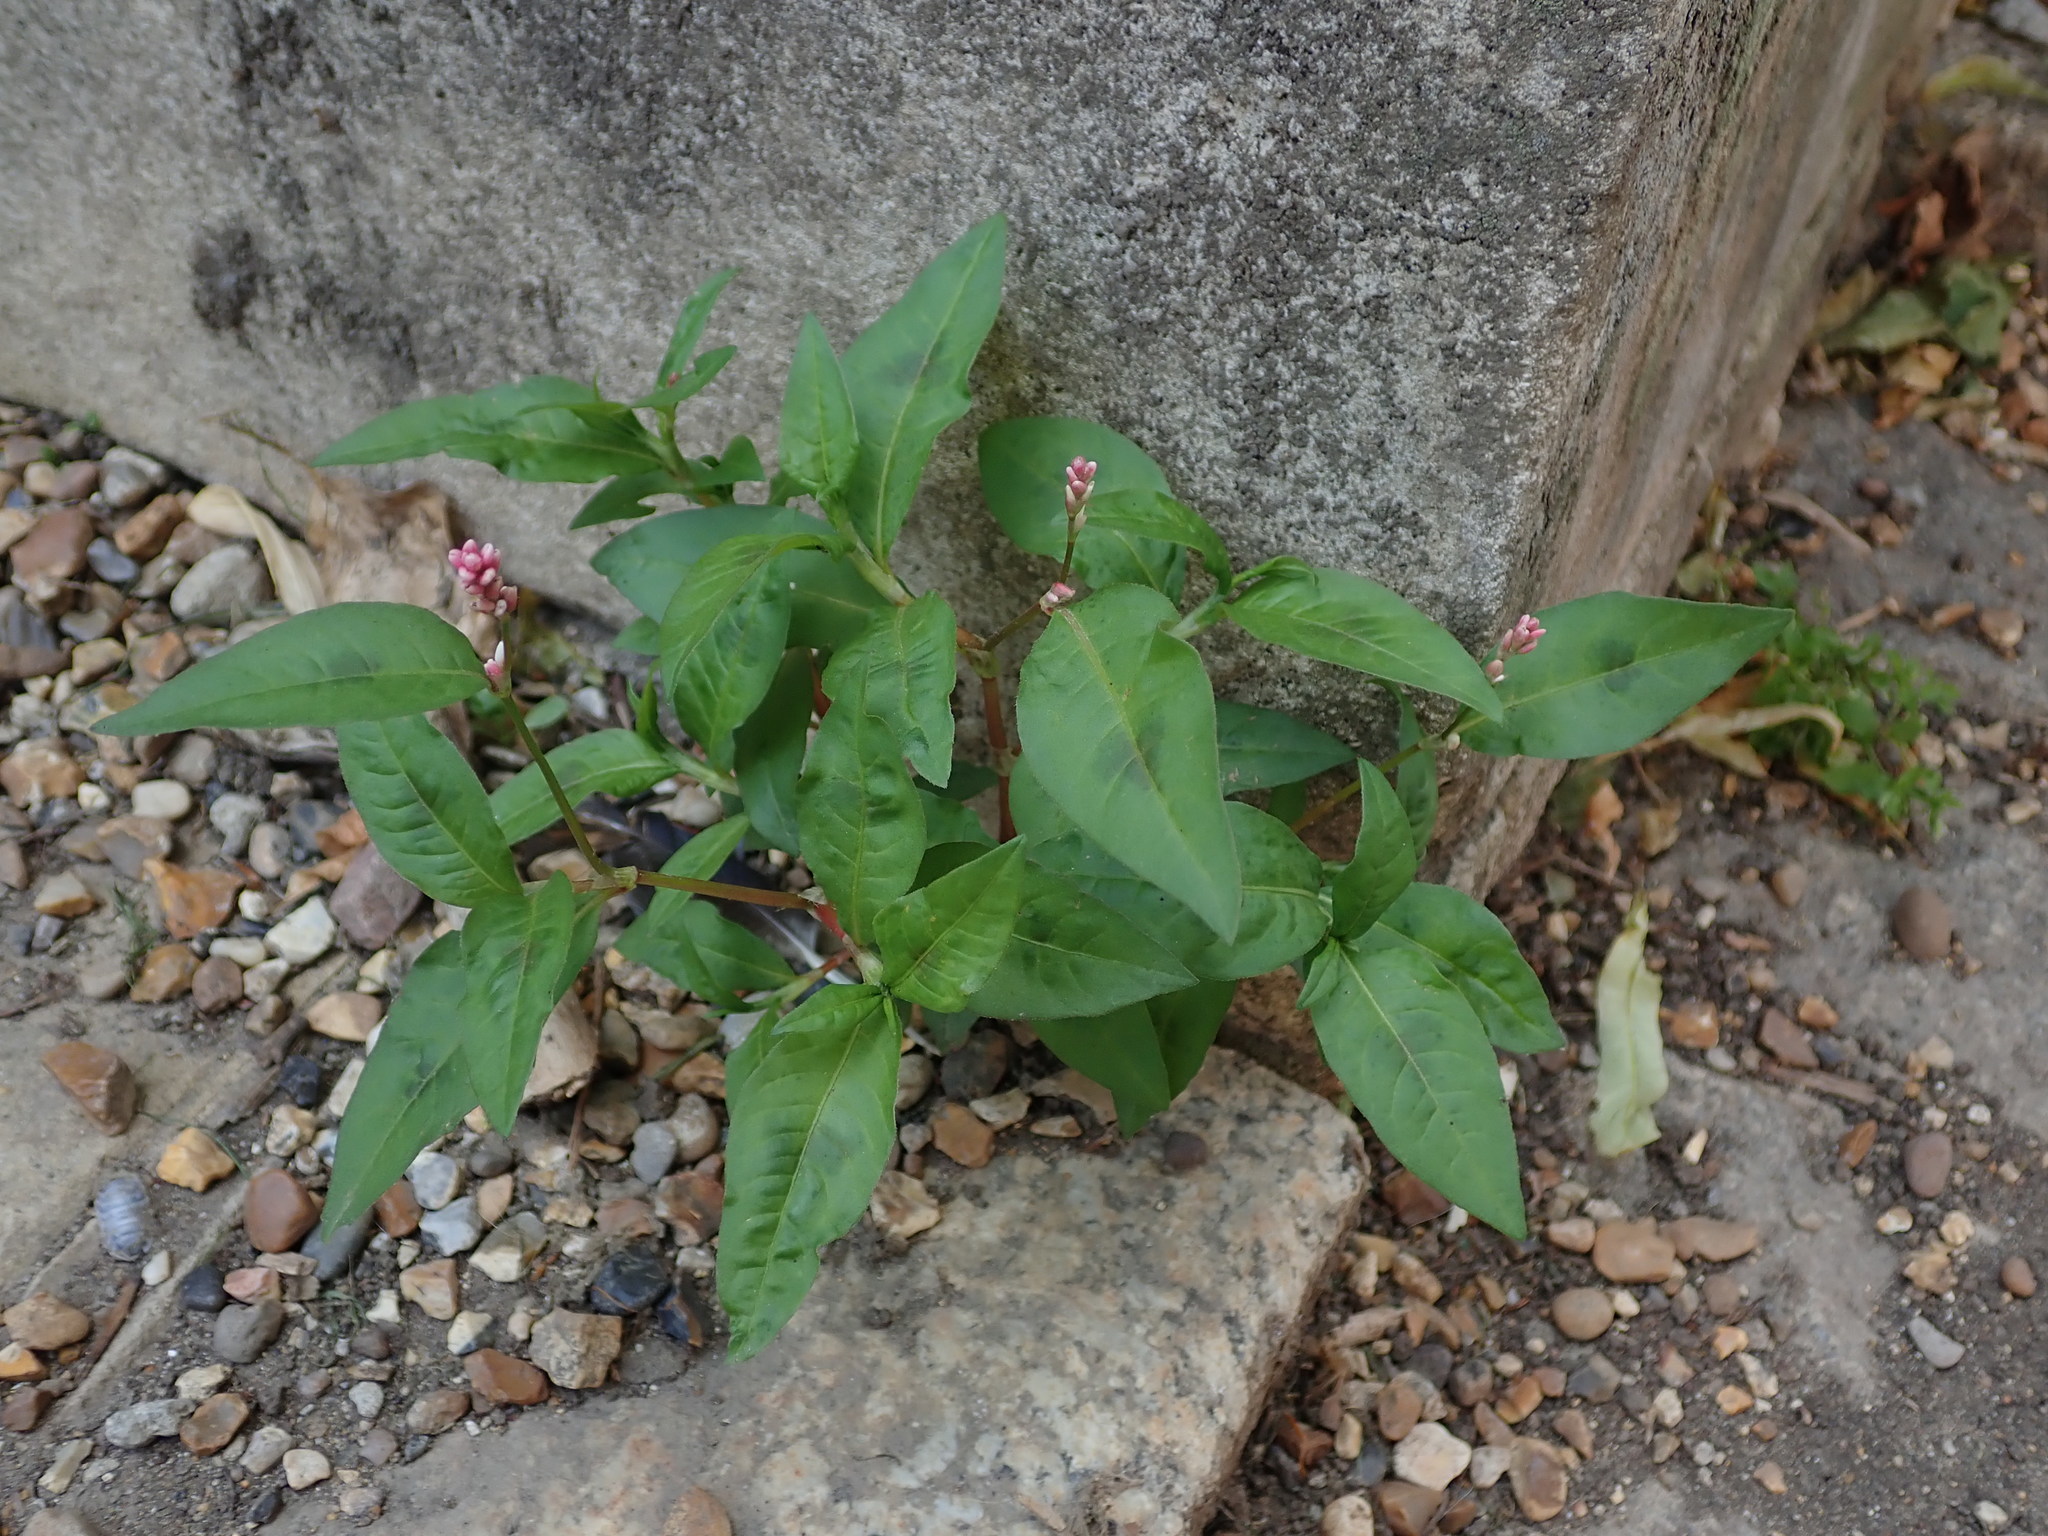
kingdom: Plantae
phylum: Tracheophyta
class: Magnoliopsida
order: Caryophyllales
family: Polygonaceae
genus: Persicaria
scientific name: Persicaria maculosa
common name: Redshank
